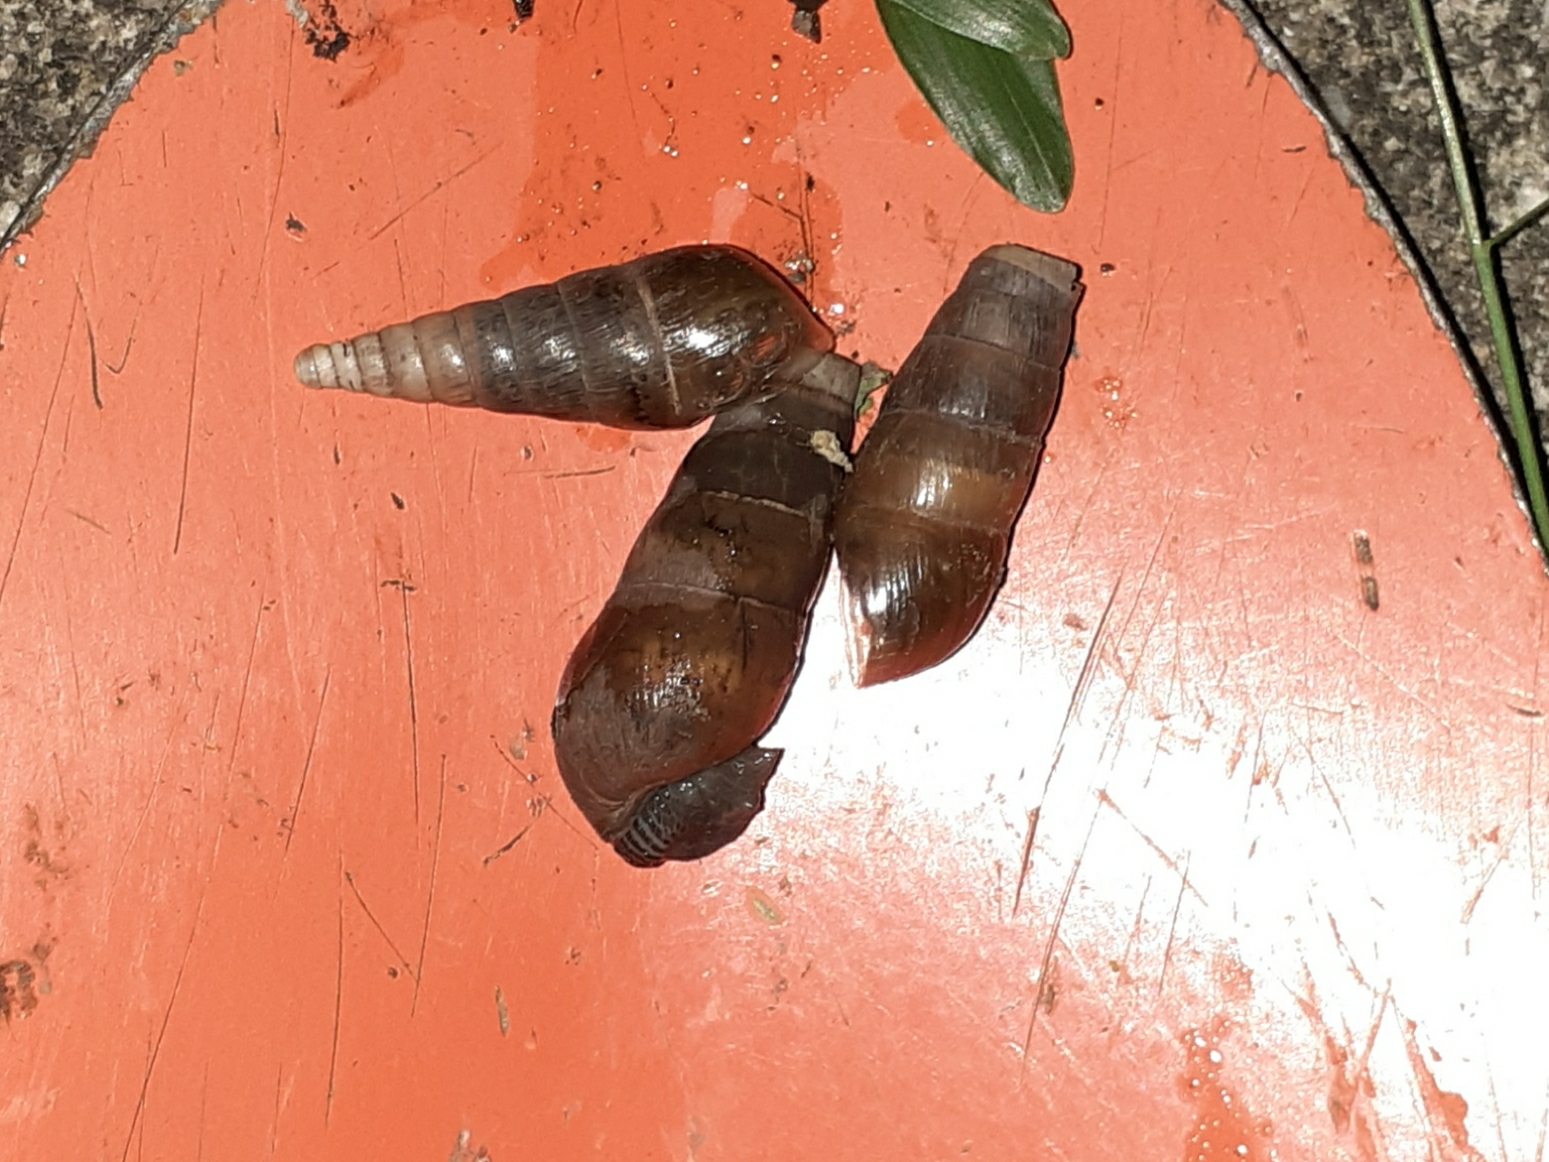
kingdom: Animalia
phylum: Mollusca
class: Gastropoda
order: Stylommatophora
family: Achatinidae
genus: Rumina
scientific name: Rumina decollata
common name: Decollate snail
